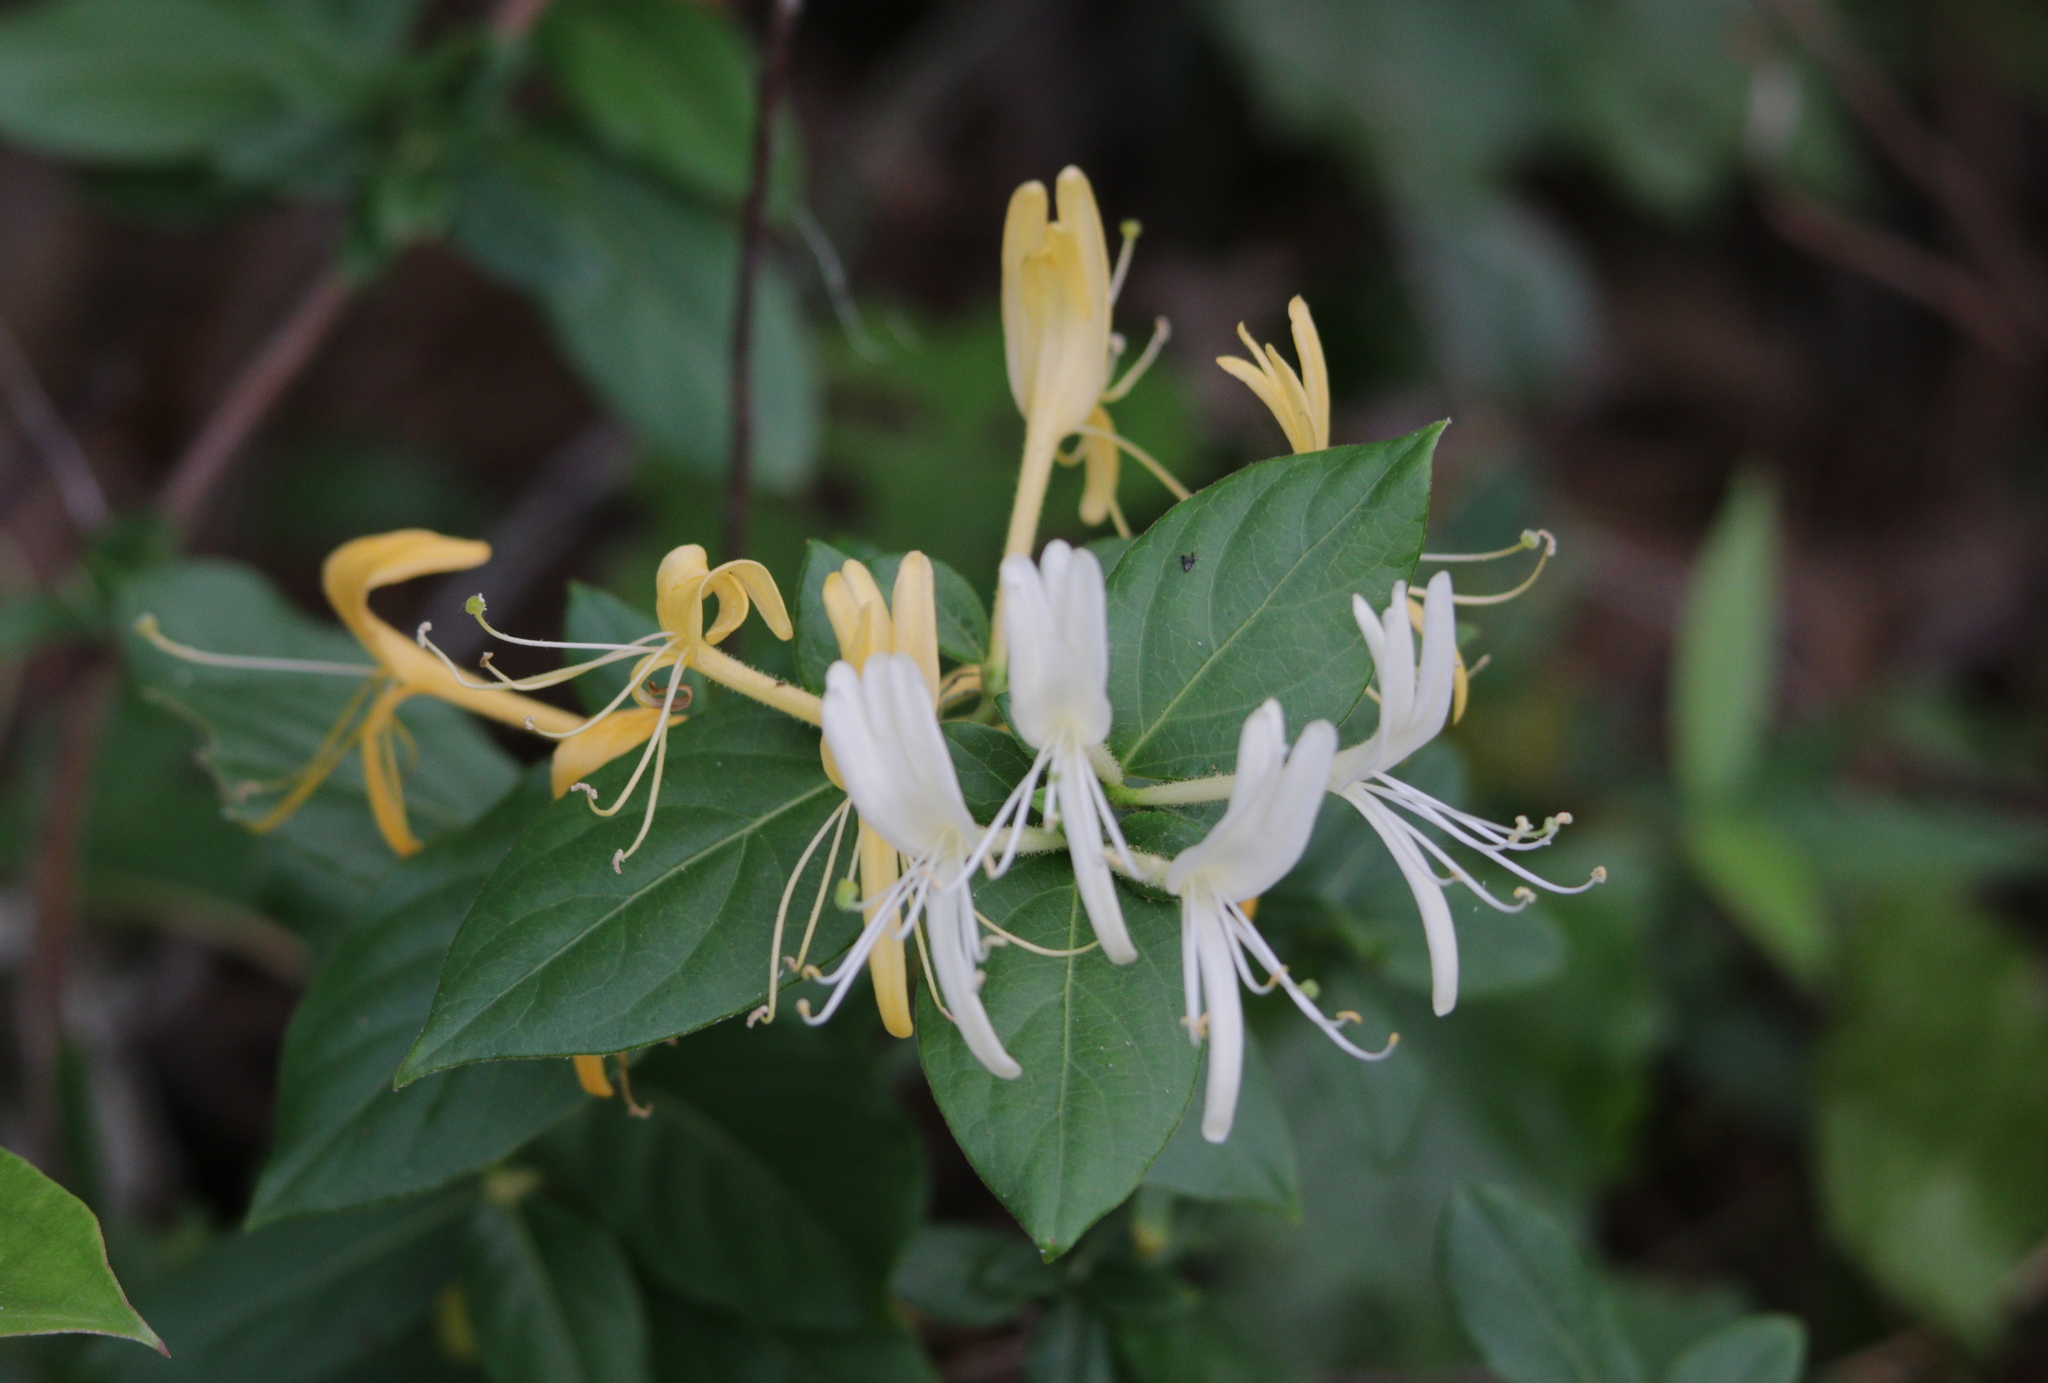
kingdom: Plantae
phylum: Tracheophyta
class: Magnoliopsida
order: Dipsacales
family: Caprifoliaceae
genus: Lonicera
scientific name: Lonicera japonica
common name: Japanese honeysuckle
